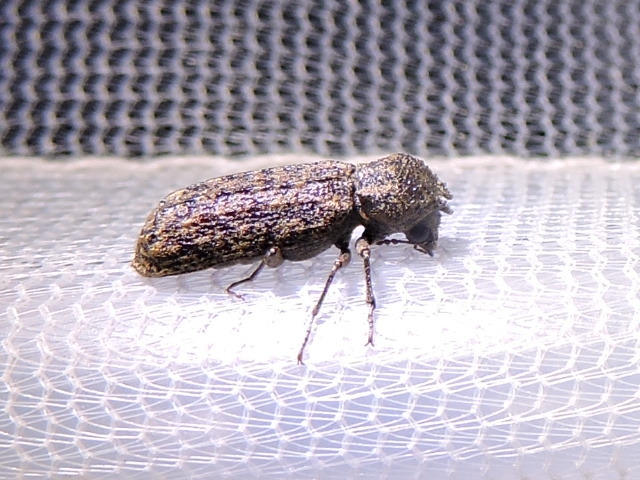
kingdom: Animalia
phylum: Arthropoda
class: Insecta
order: Coleoptera
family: Bostrichidae
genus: Lichenophanes
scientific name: Lichenophanes bicornis
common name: Two-horned powder-post beetle
